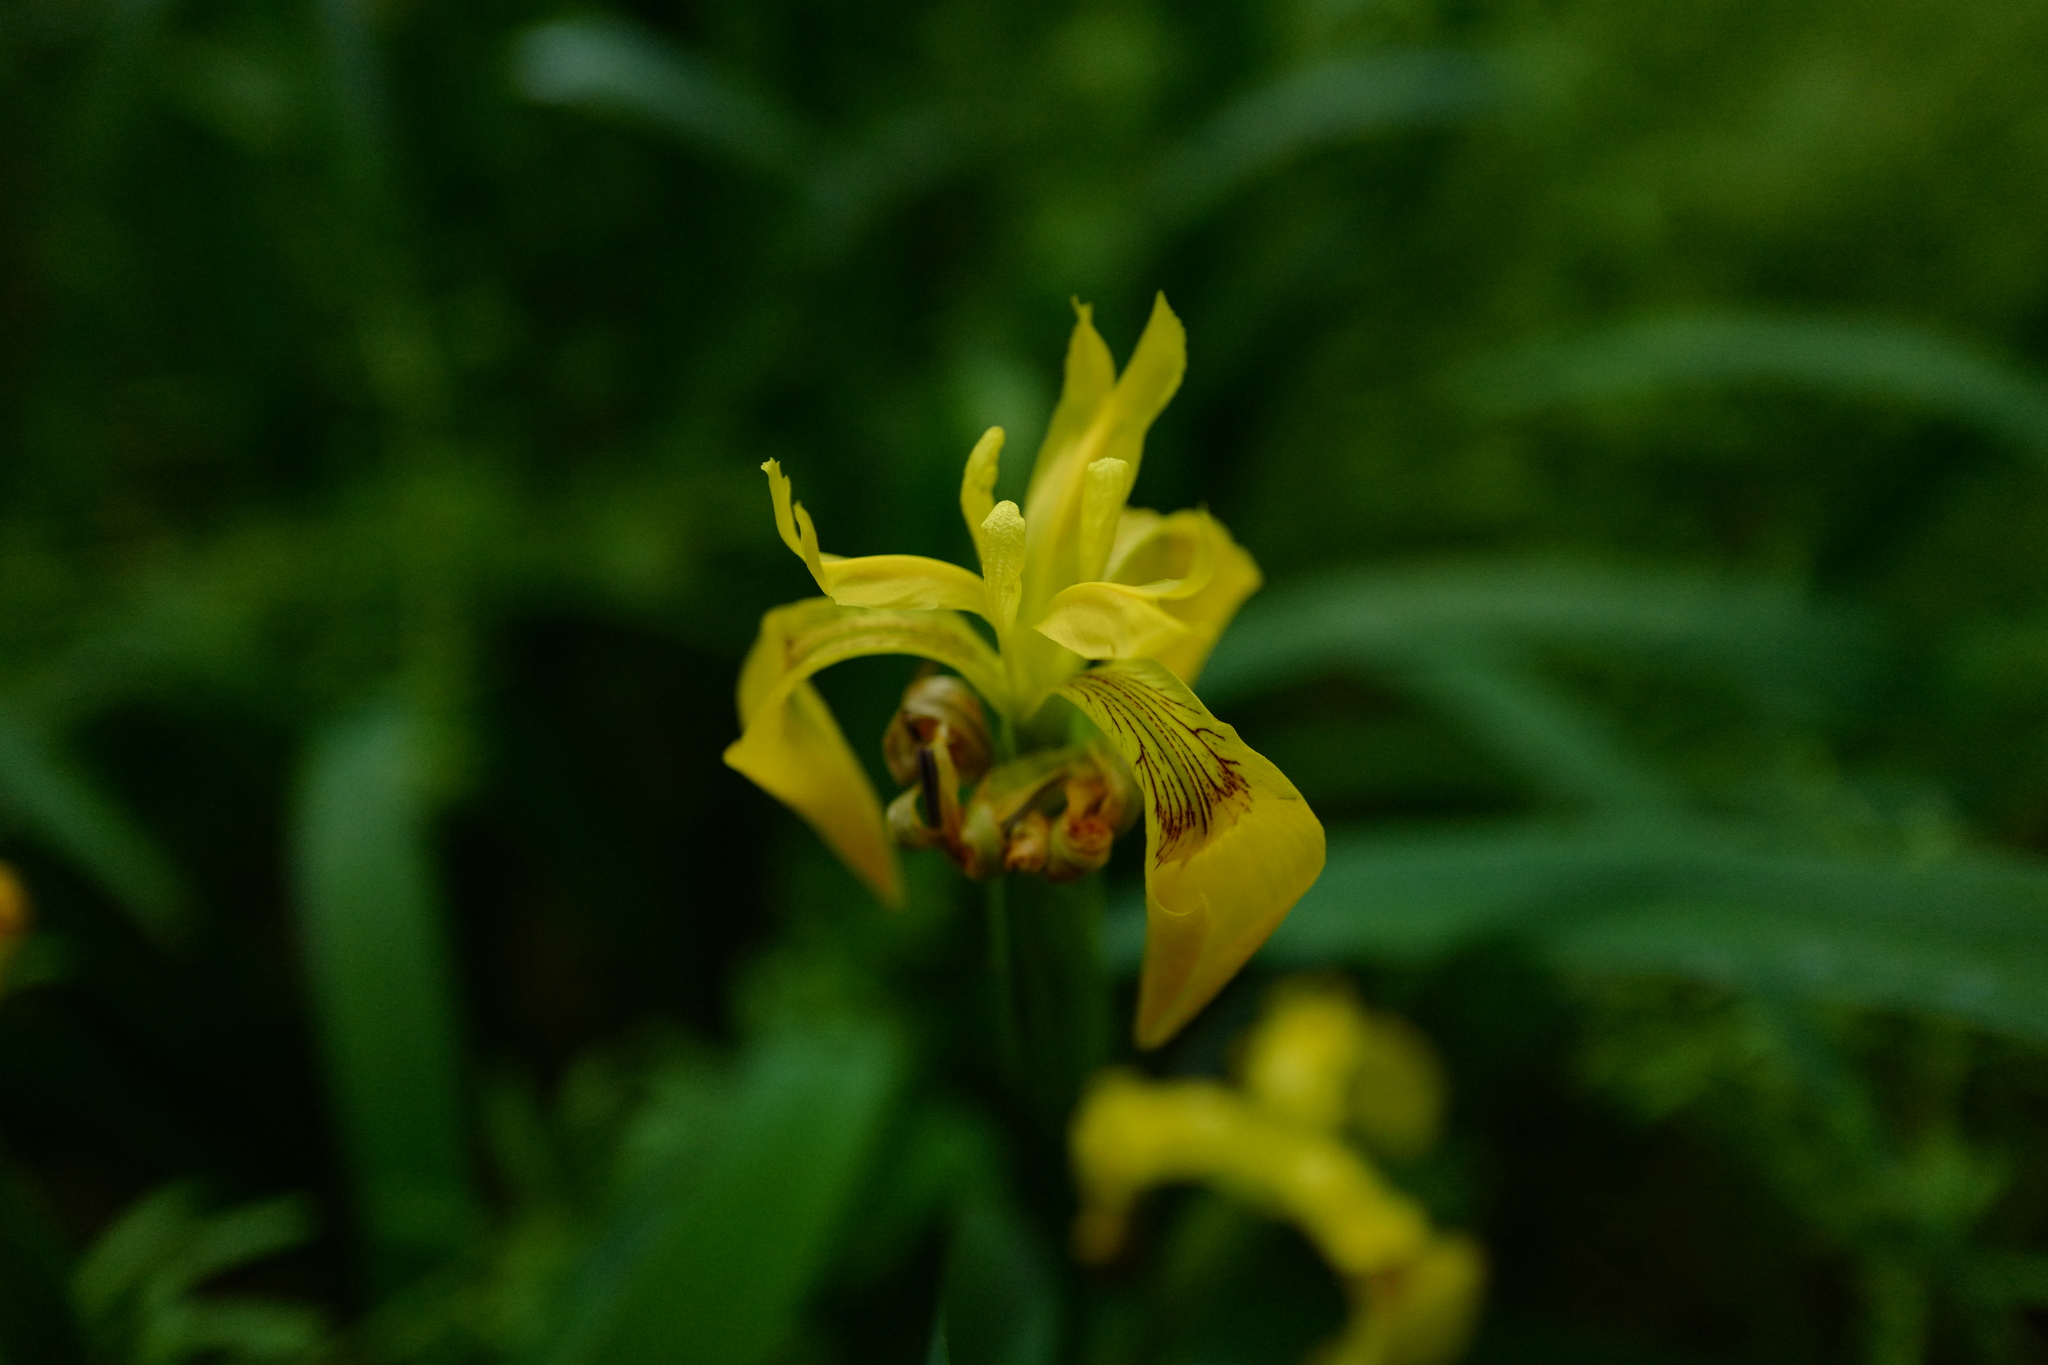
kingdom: Plantae
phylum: Tracheophyta
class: Liliopsida
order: Asparagales
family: Iridaceae
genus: Iris
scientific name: Iris pseudacorus
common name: Yellow flag
